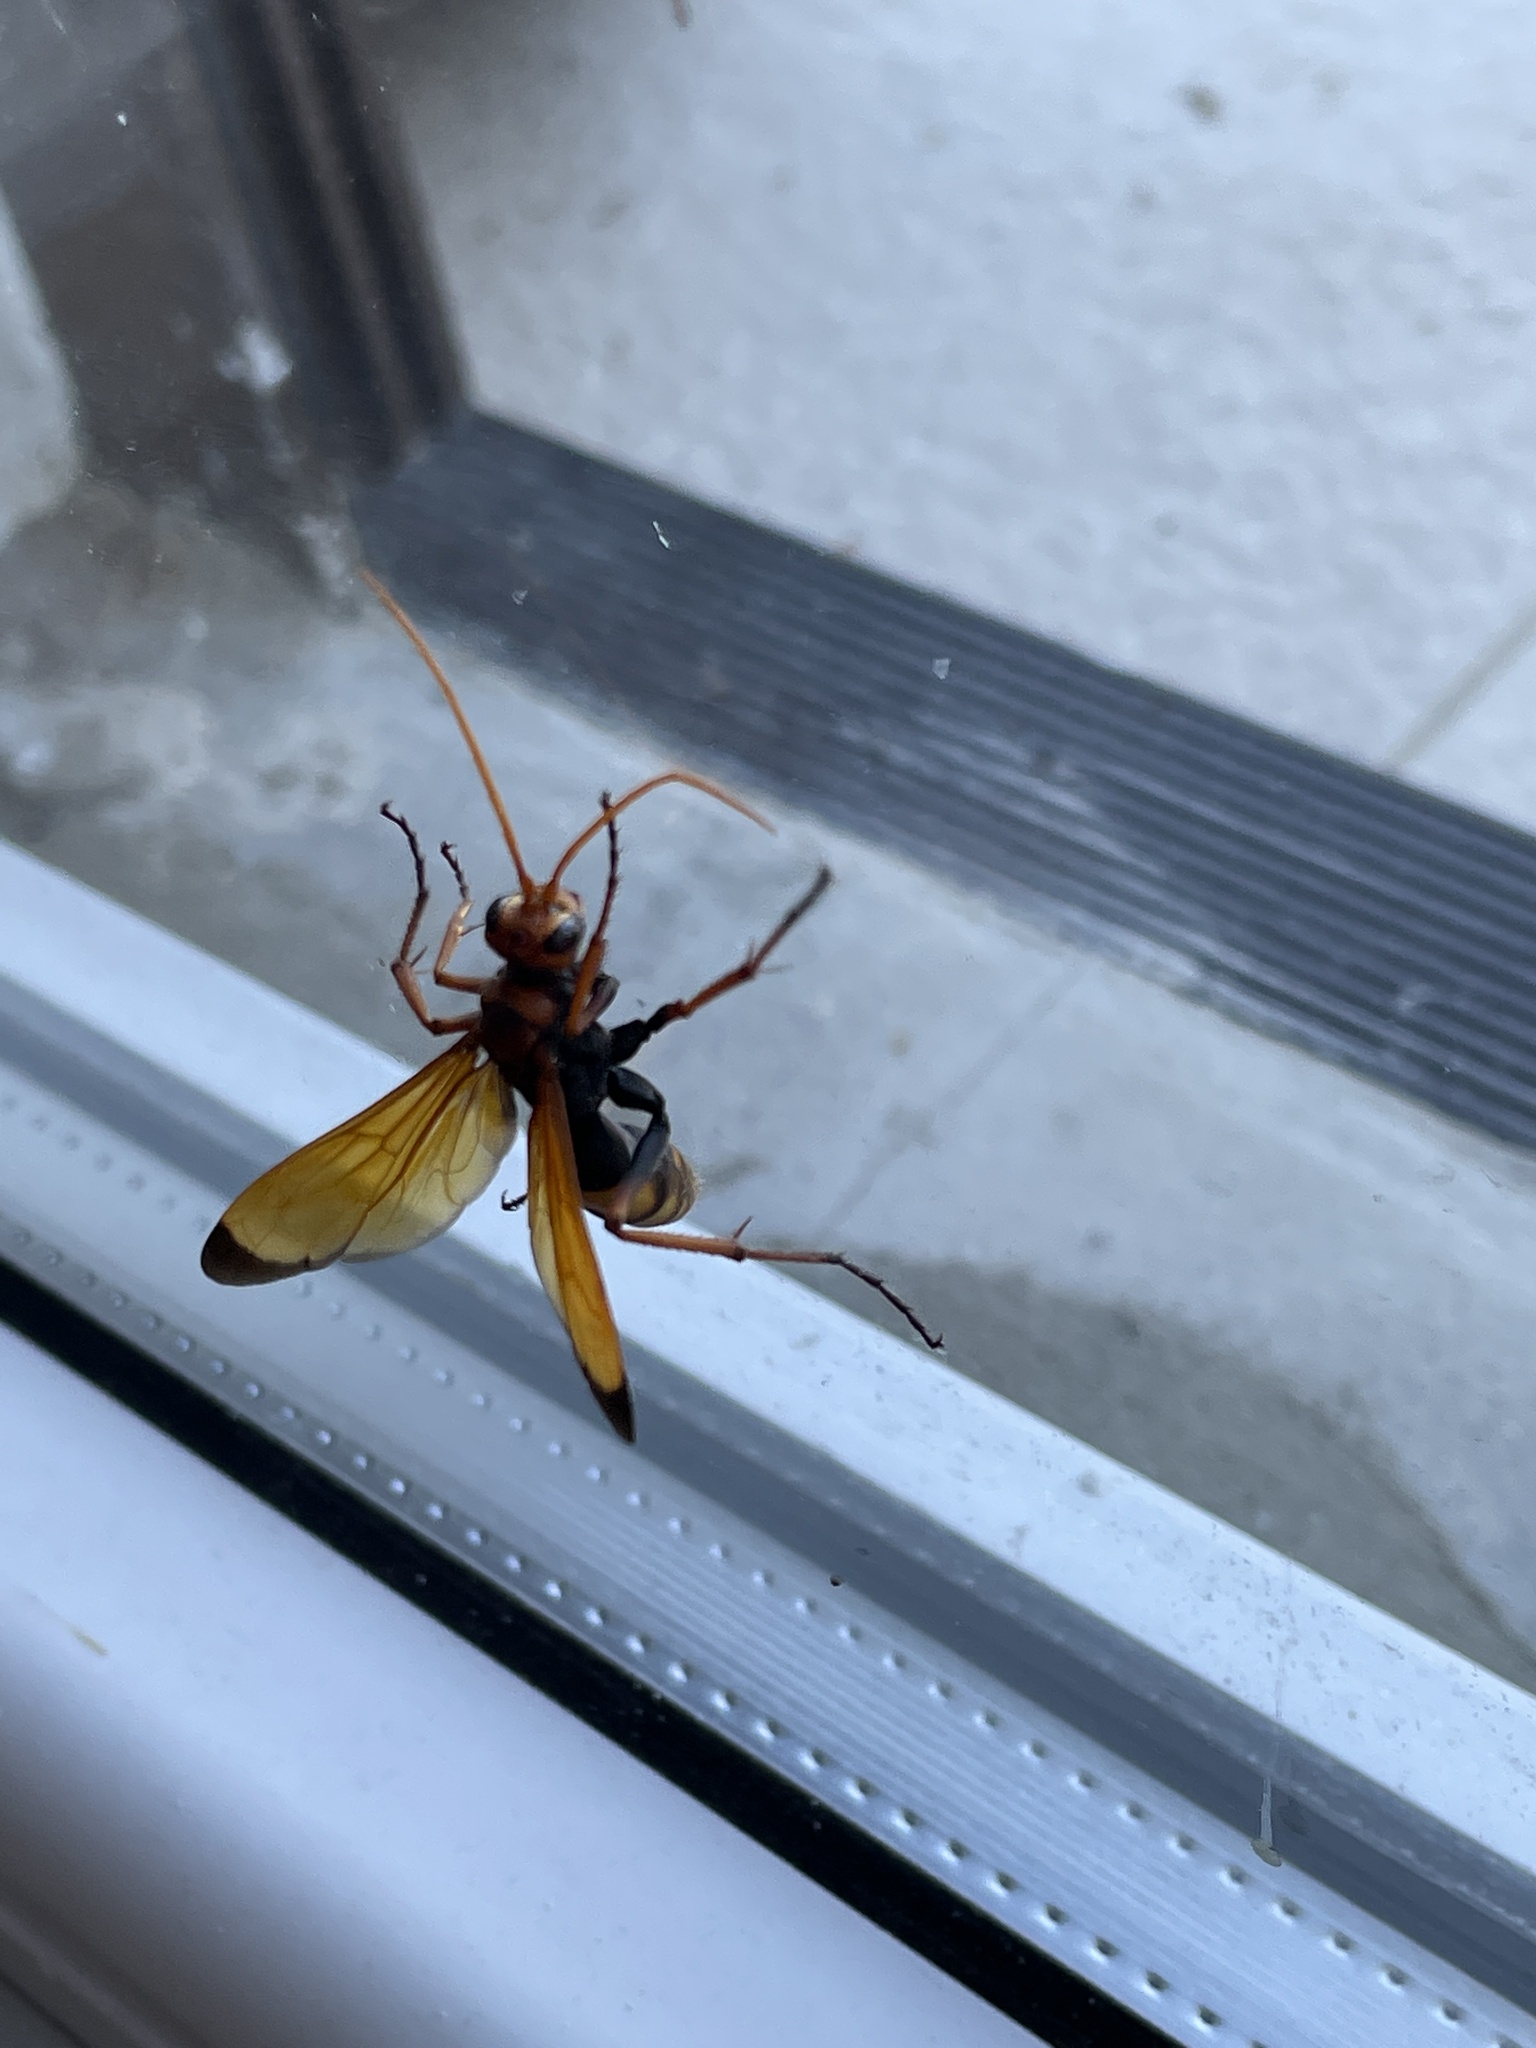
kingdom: Animalia
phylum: Arthropoda
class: Insecta
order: Hymenoptera
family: Pompilidae
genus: Cryptocheilus
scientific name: Cryptocheilus alternatus
